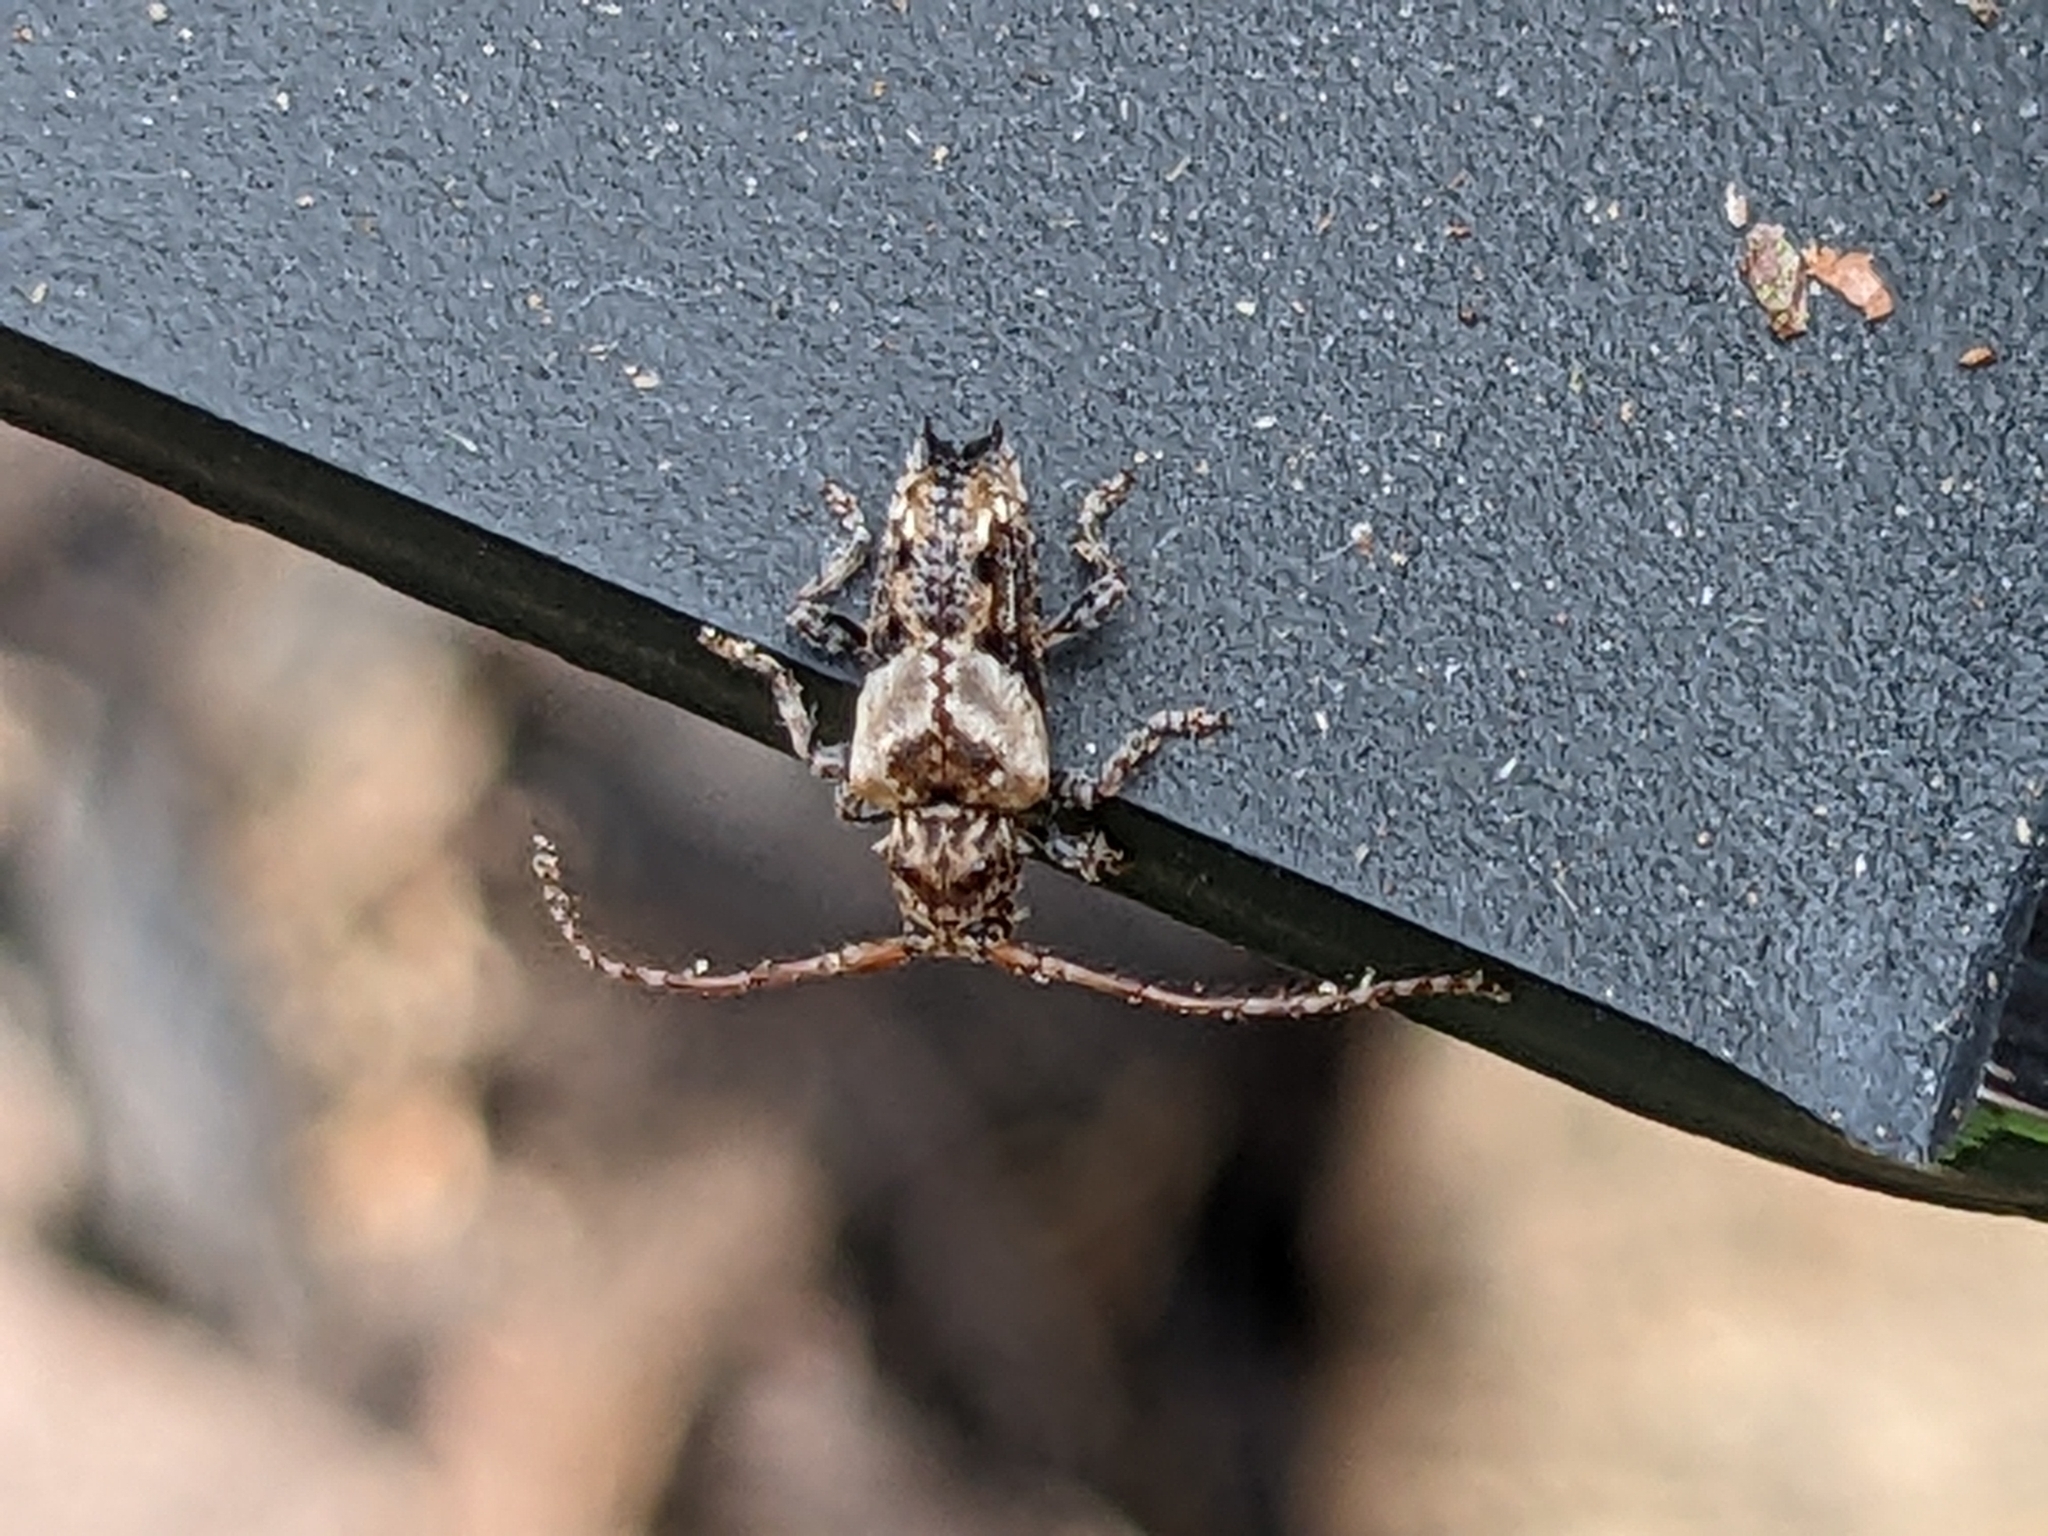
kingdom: Animalia
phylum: Arthropoda
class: Insecta
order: Coleoptera
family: Cerambycidae
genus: Pogonocherus
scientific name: Pogonocherus hispidus
